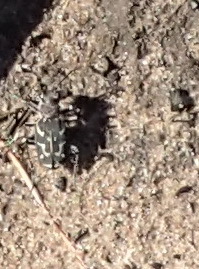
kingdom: Animalia
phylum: Arthropoda
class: Insecta
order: Coleoptera
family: Carabidae
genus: Cicindela
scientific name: Cicindela lurida
